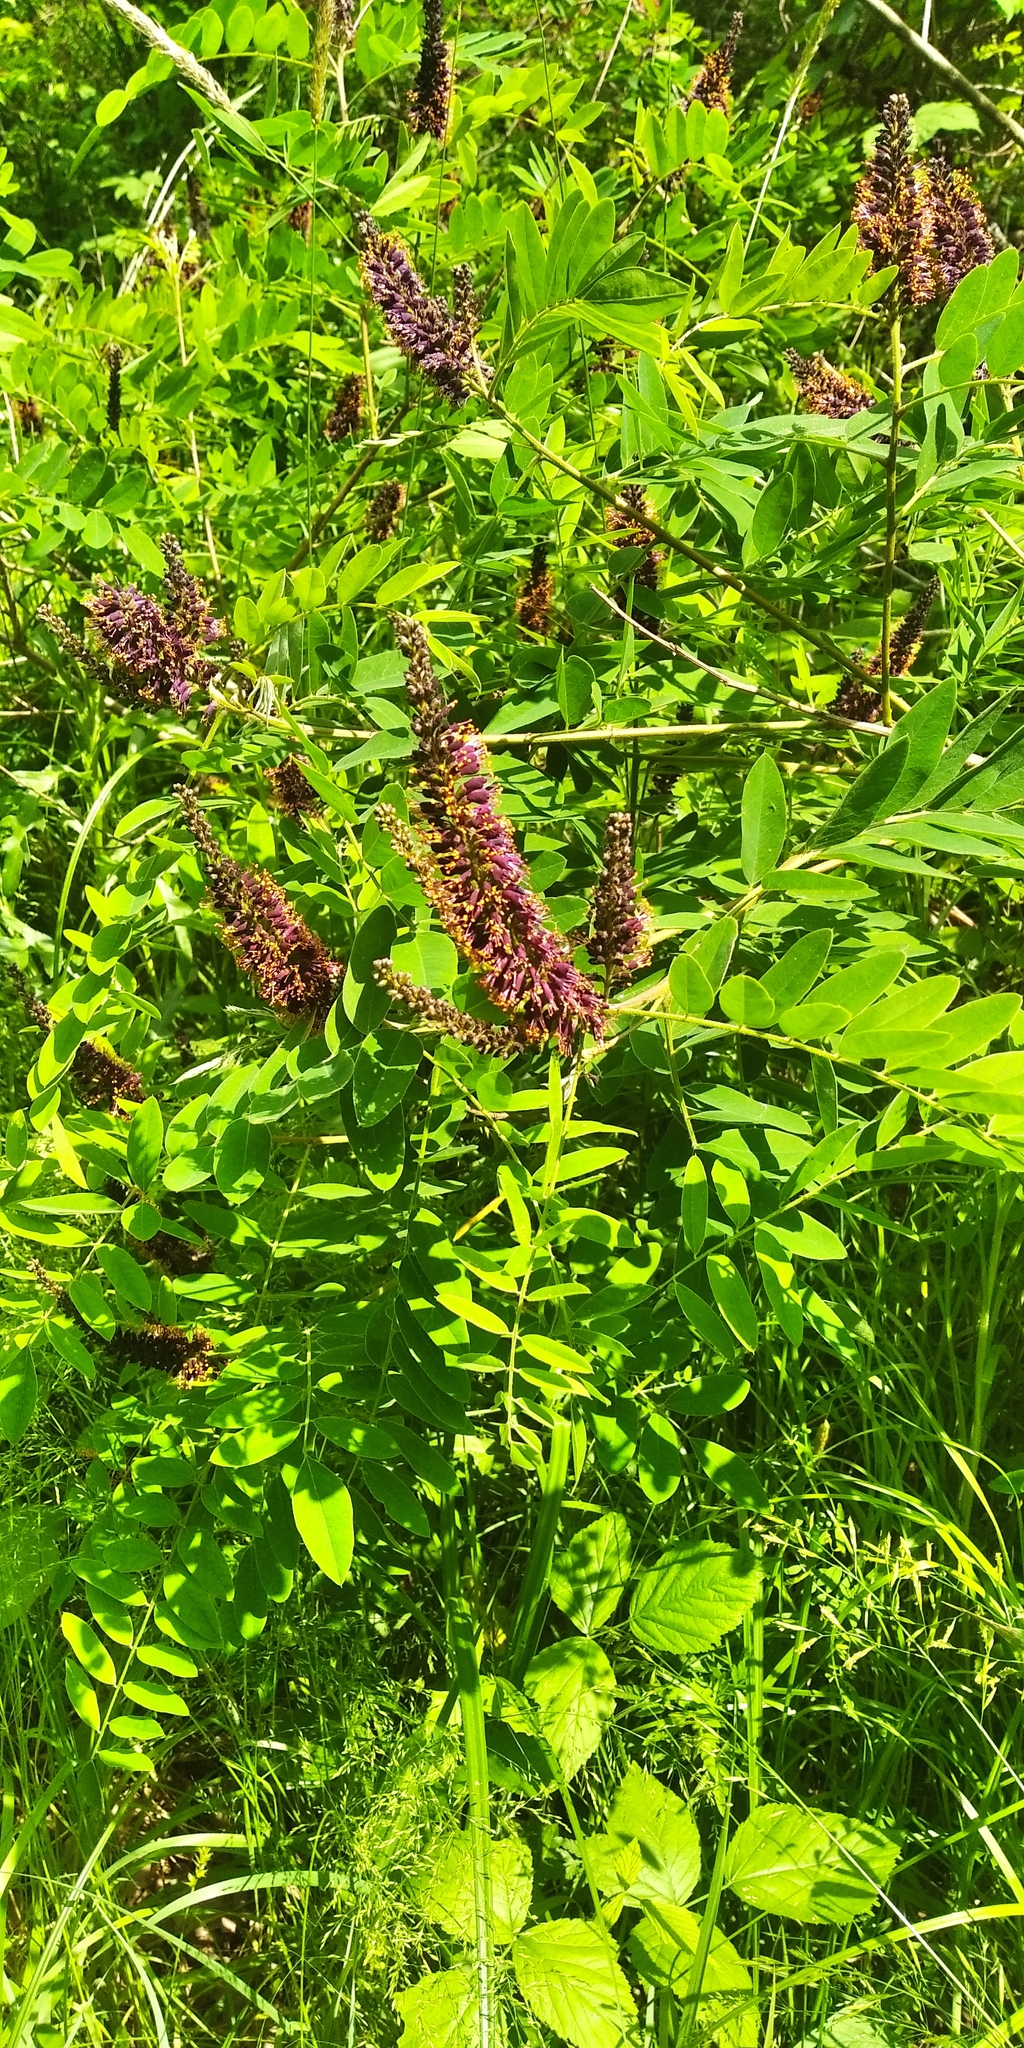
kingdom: Plantae
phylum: Tracheophyta
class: Magnoliopsida
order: Fabales
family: Fabaceae
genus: Amorpha
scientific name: Amorpha fruticosa
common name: False indigo
